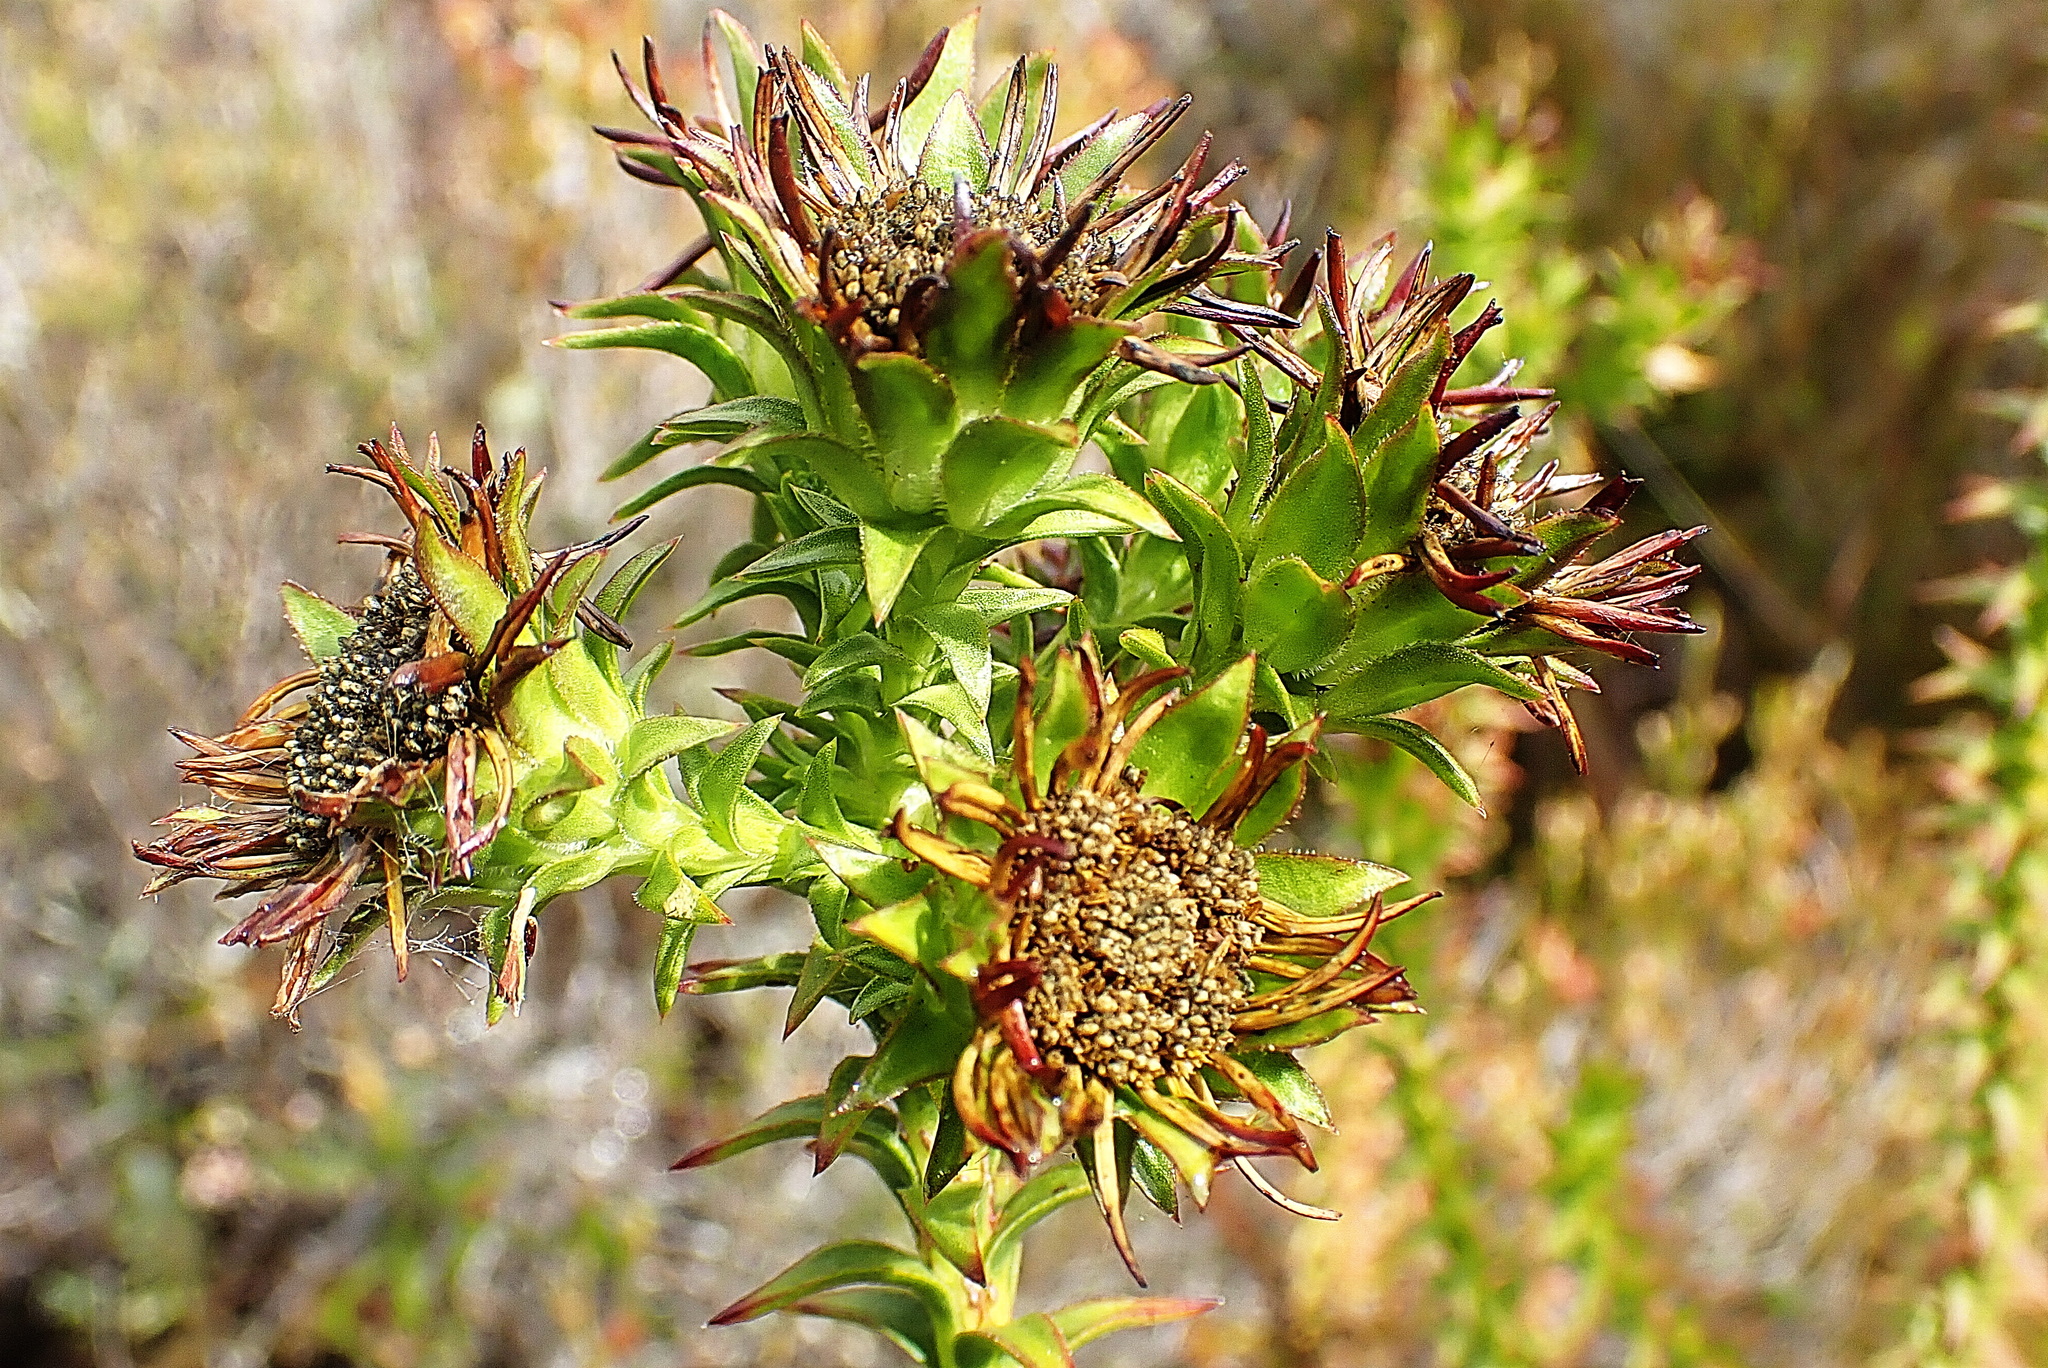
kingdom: Plantae
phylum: Tracheophyta
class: Magnoliopsida
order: Asterales
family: Asteraceae
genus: Oedera
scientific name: Oedera imbricata
